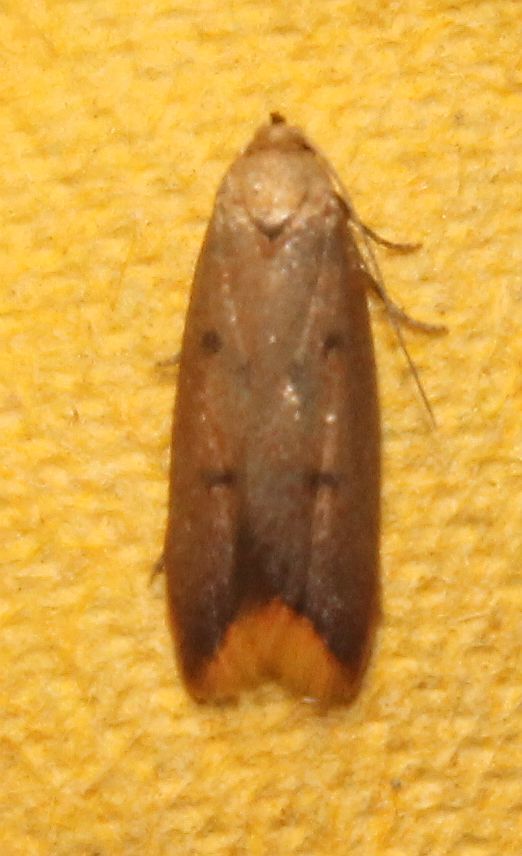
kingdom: Animalia
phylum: Arthropoda
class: Insecta
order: Lepidoptera
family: Oecophoridae
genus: Tachystola
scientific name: Tachystola acroxantha
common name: Ruddy streak
